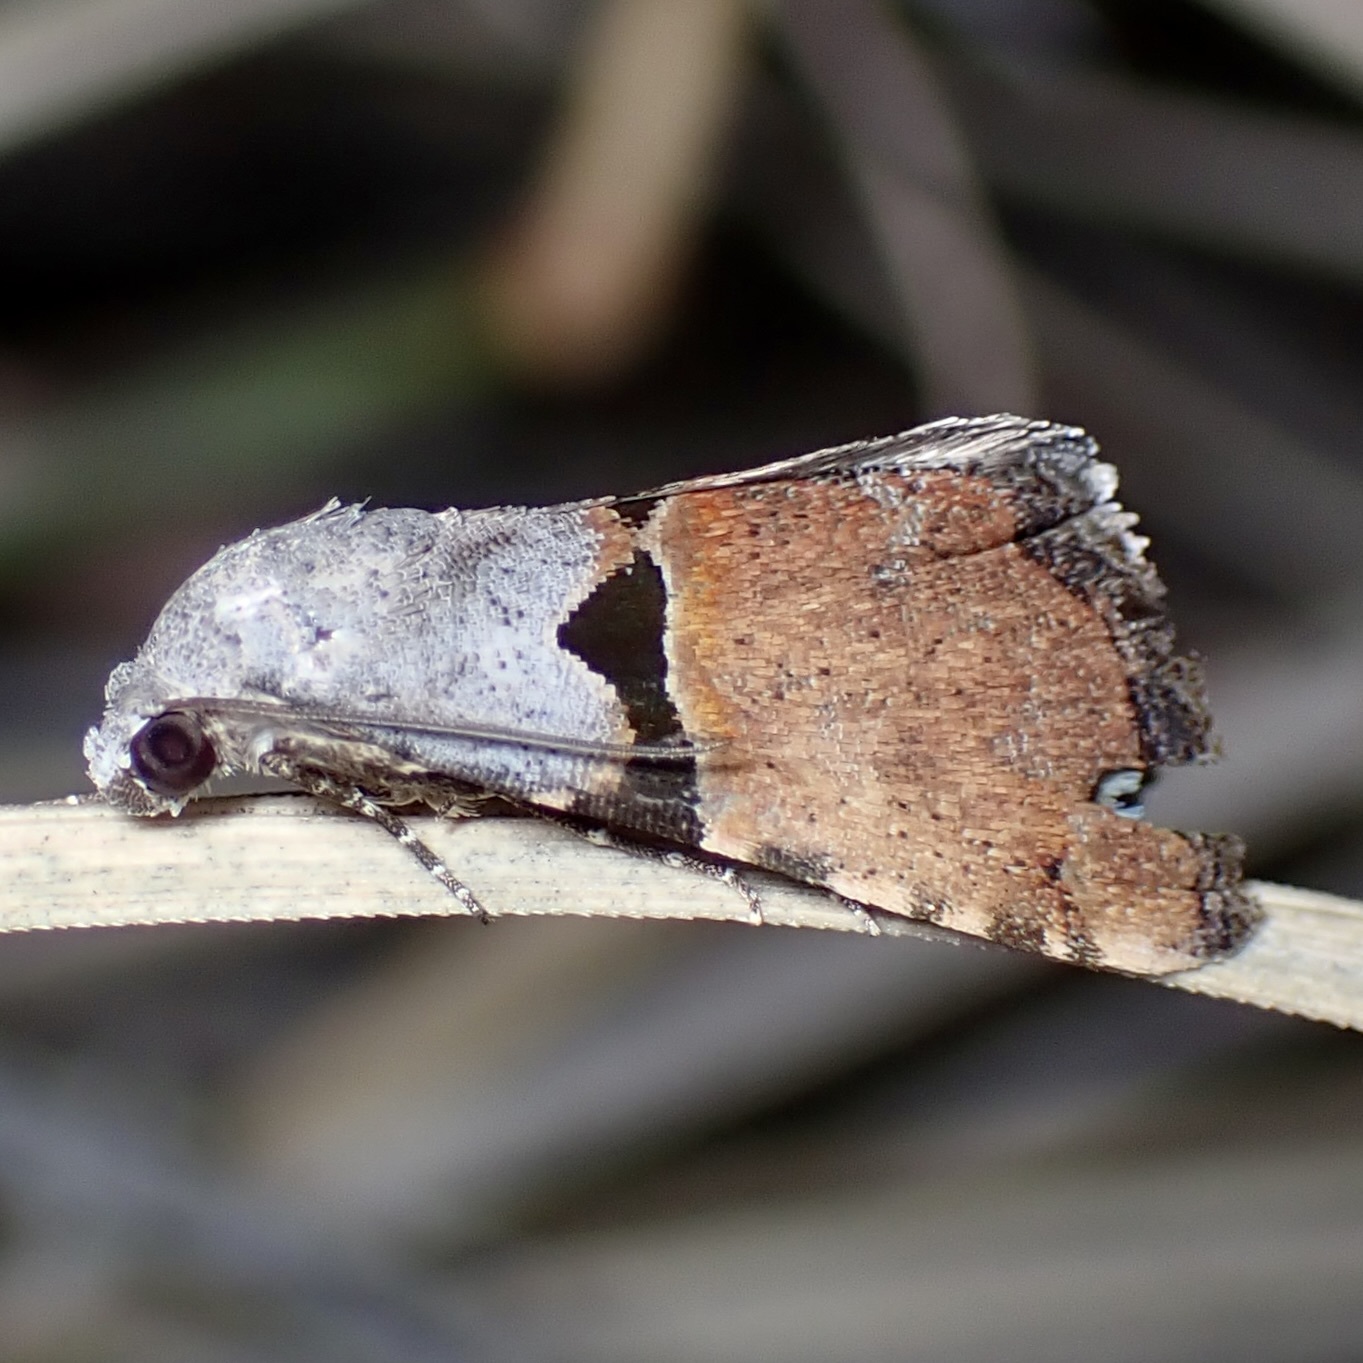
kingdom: Animalia
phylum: Arthropoda
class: Insecta
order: Lepidoptera
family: Noctuidae
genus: Cobubatha
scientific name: Cobubatha orthozona
